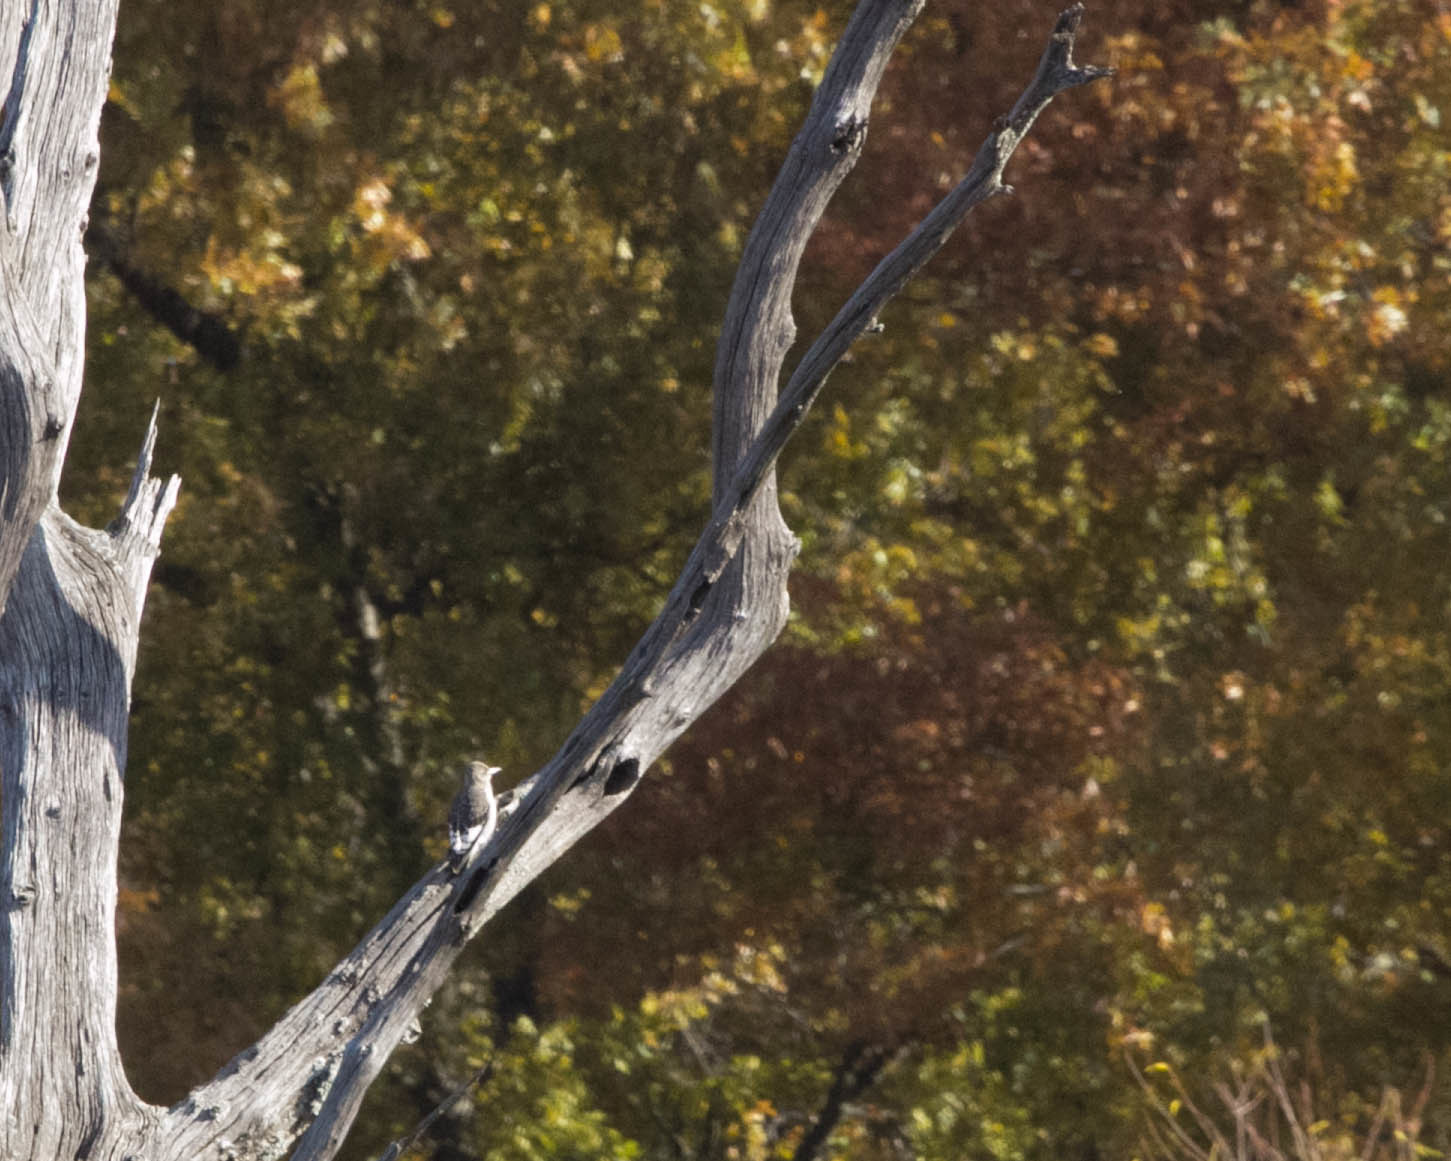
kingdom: Animalia
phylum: Chordata
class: Aves
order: Piciformes
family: Picidae
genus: Melanerpes
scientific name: Melanerpes erythrocephalus
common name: Red-headed woodpecker
